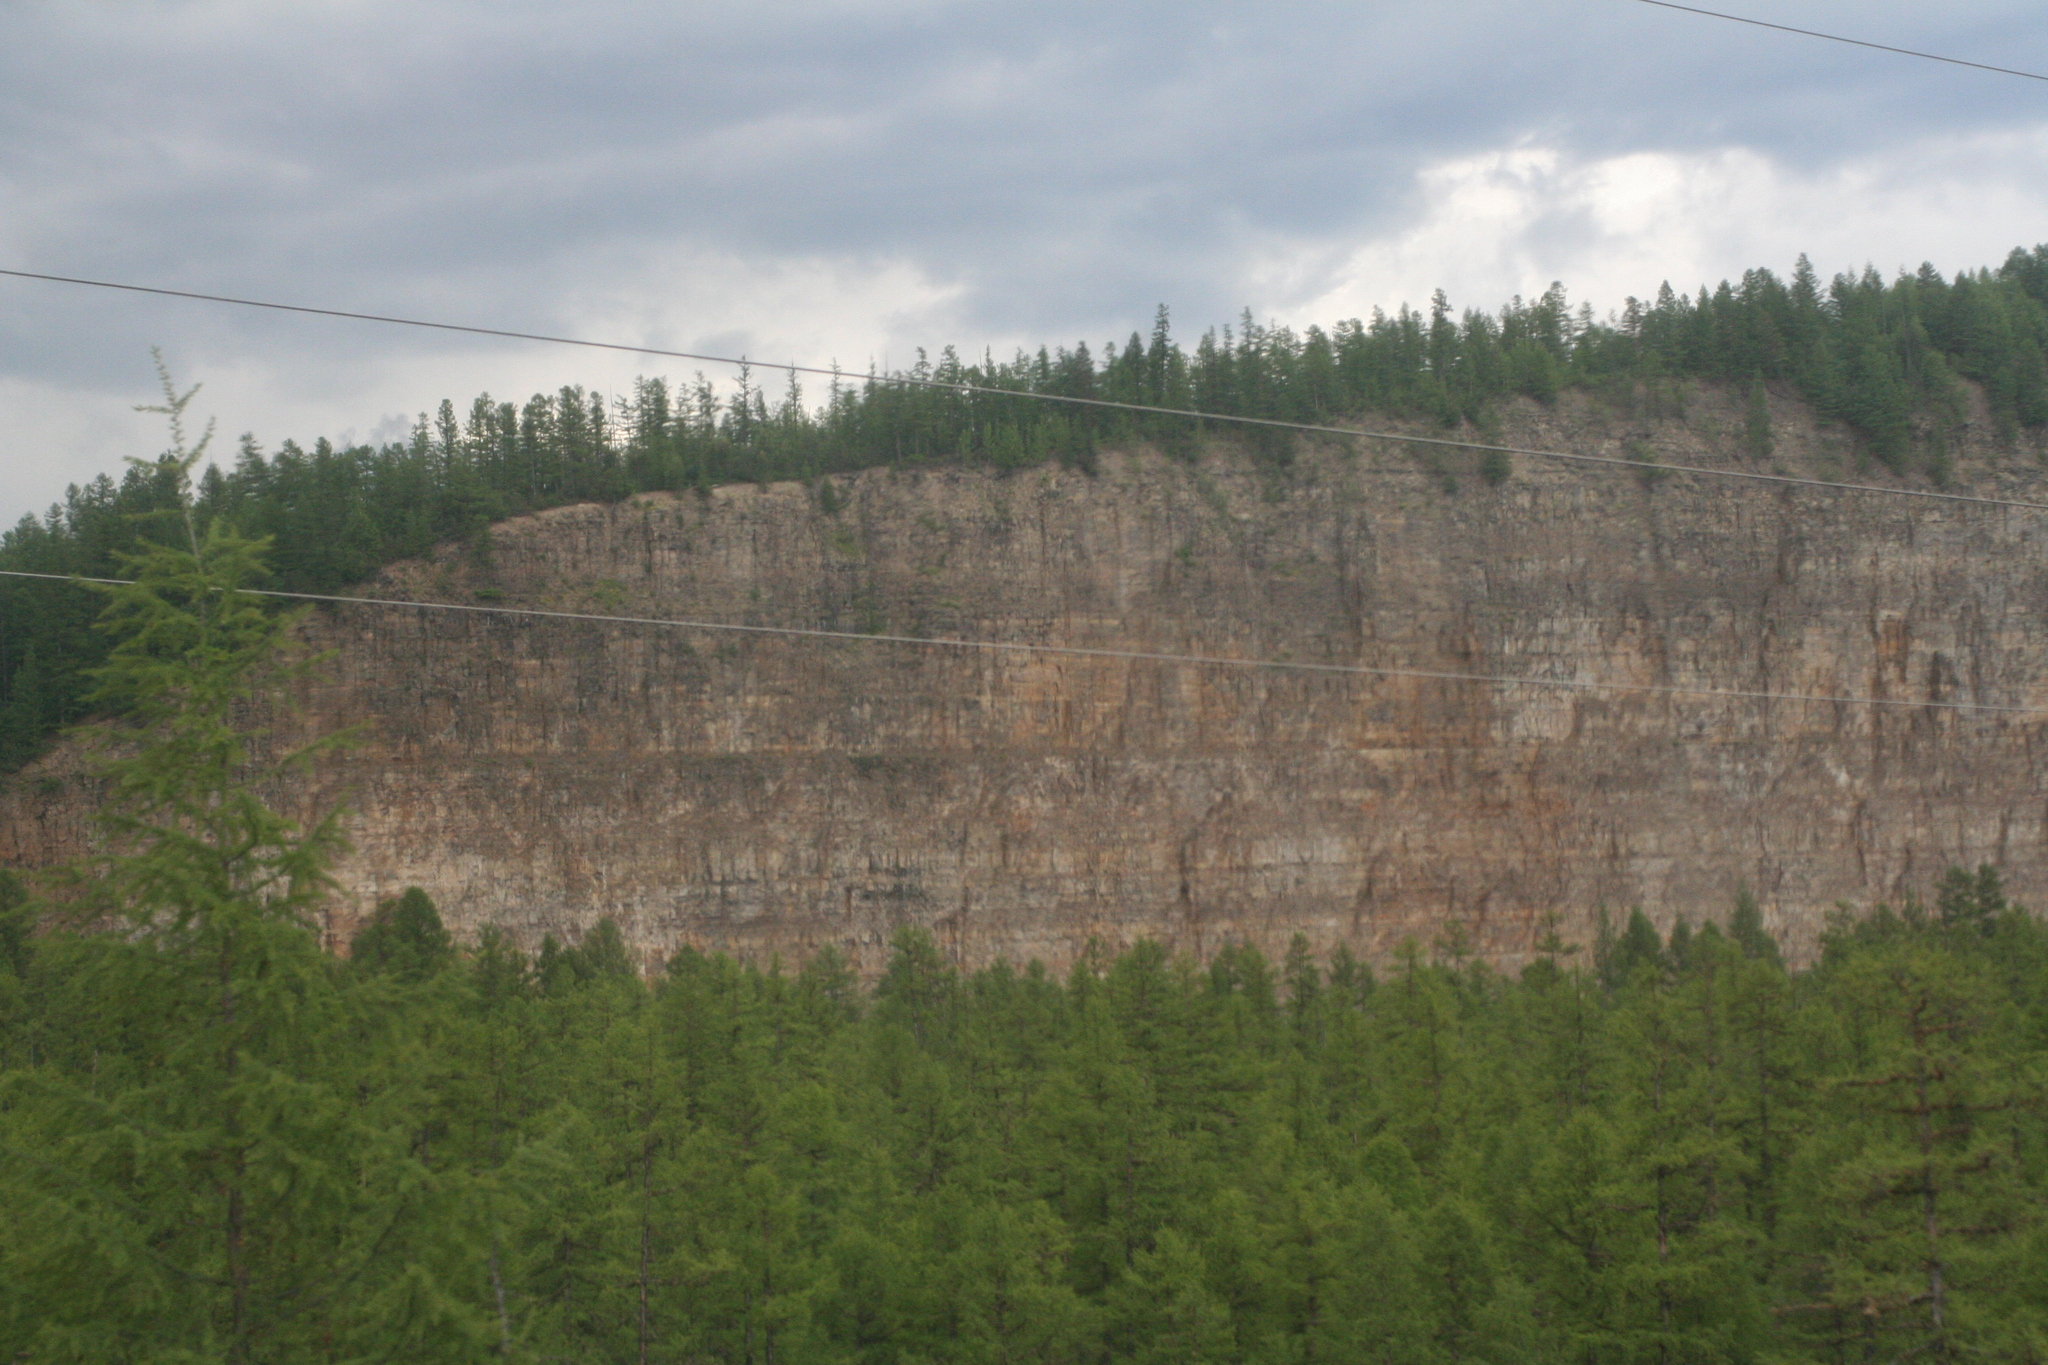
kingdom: Plantae
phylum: Tracheophyta
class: Pinopsida
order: Pinales
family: Pinaceae
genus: Larix
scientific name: Larix gmelinii
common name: Dahurian larch
